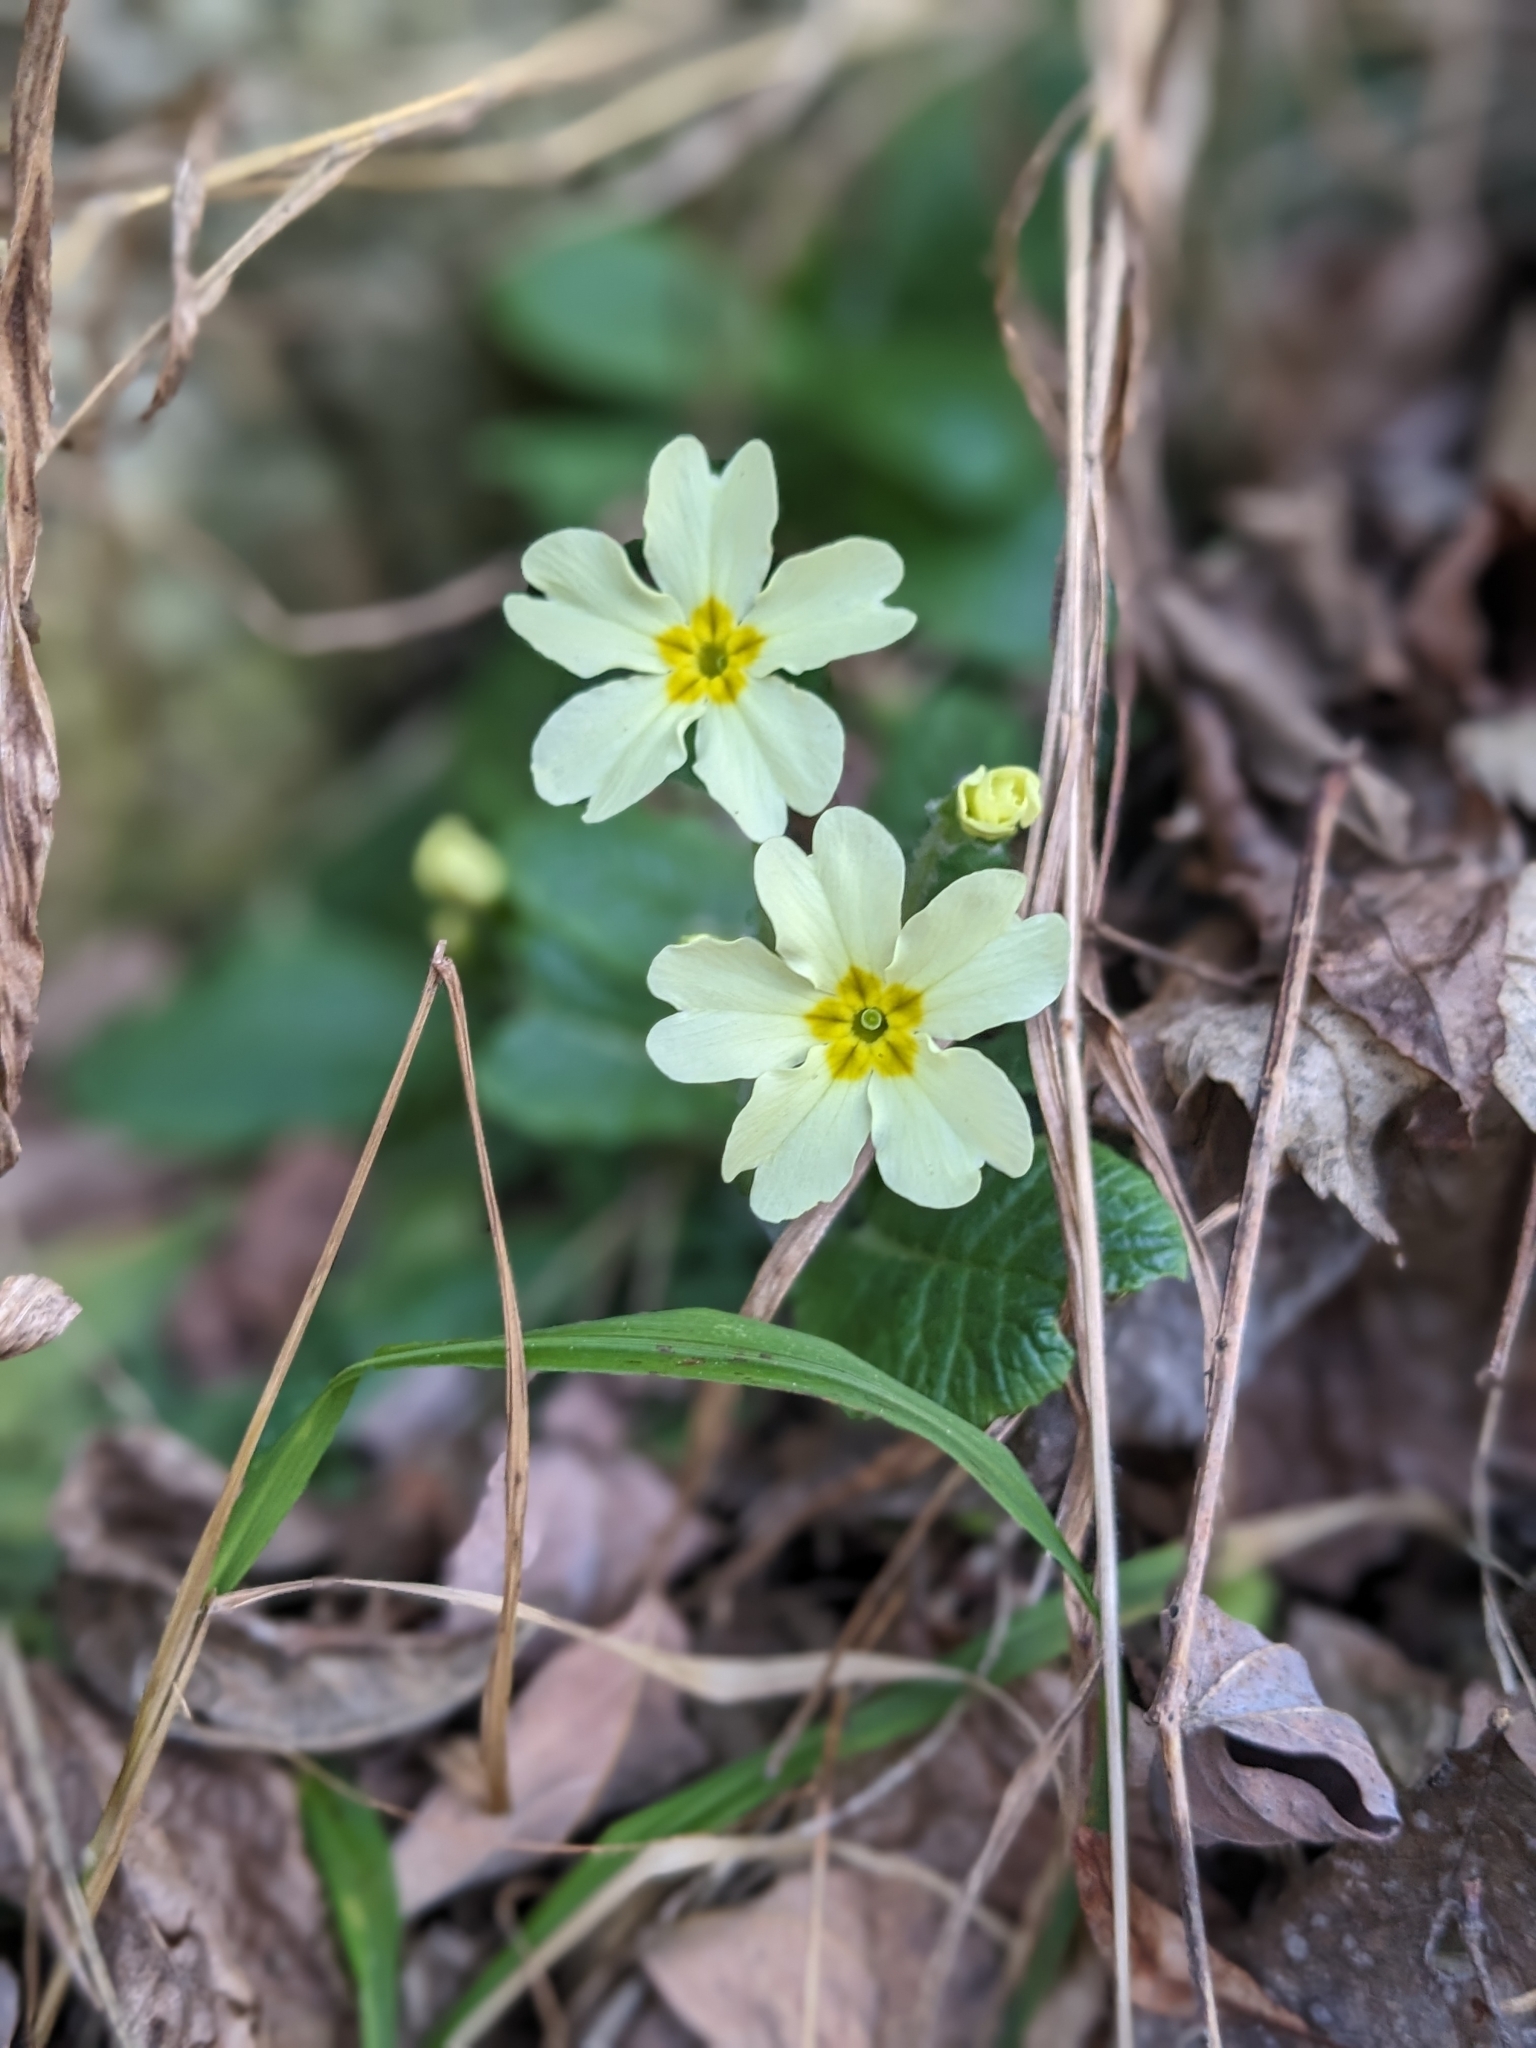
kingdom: Plantae
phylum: Tracheophyta
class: Magnoliopsida
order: Ericales
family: Primulaceae
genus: Primula
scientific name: Primula vulgaris
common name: Primrose
